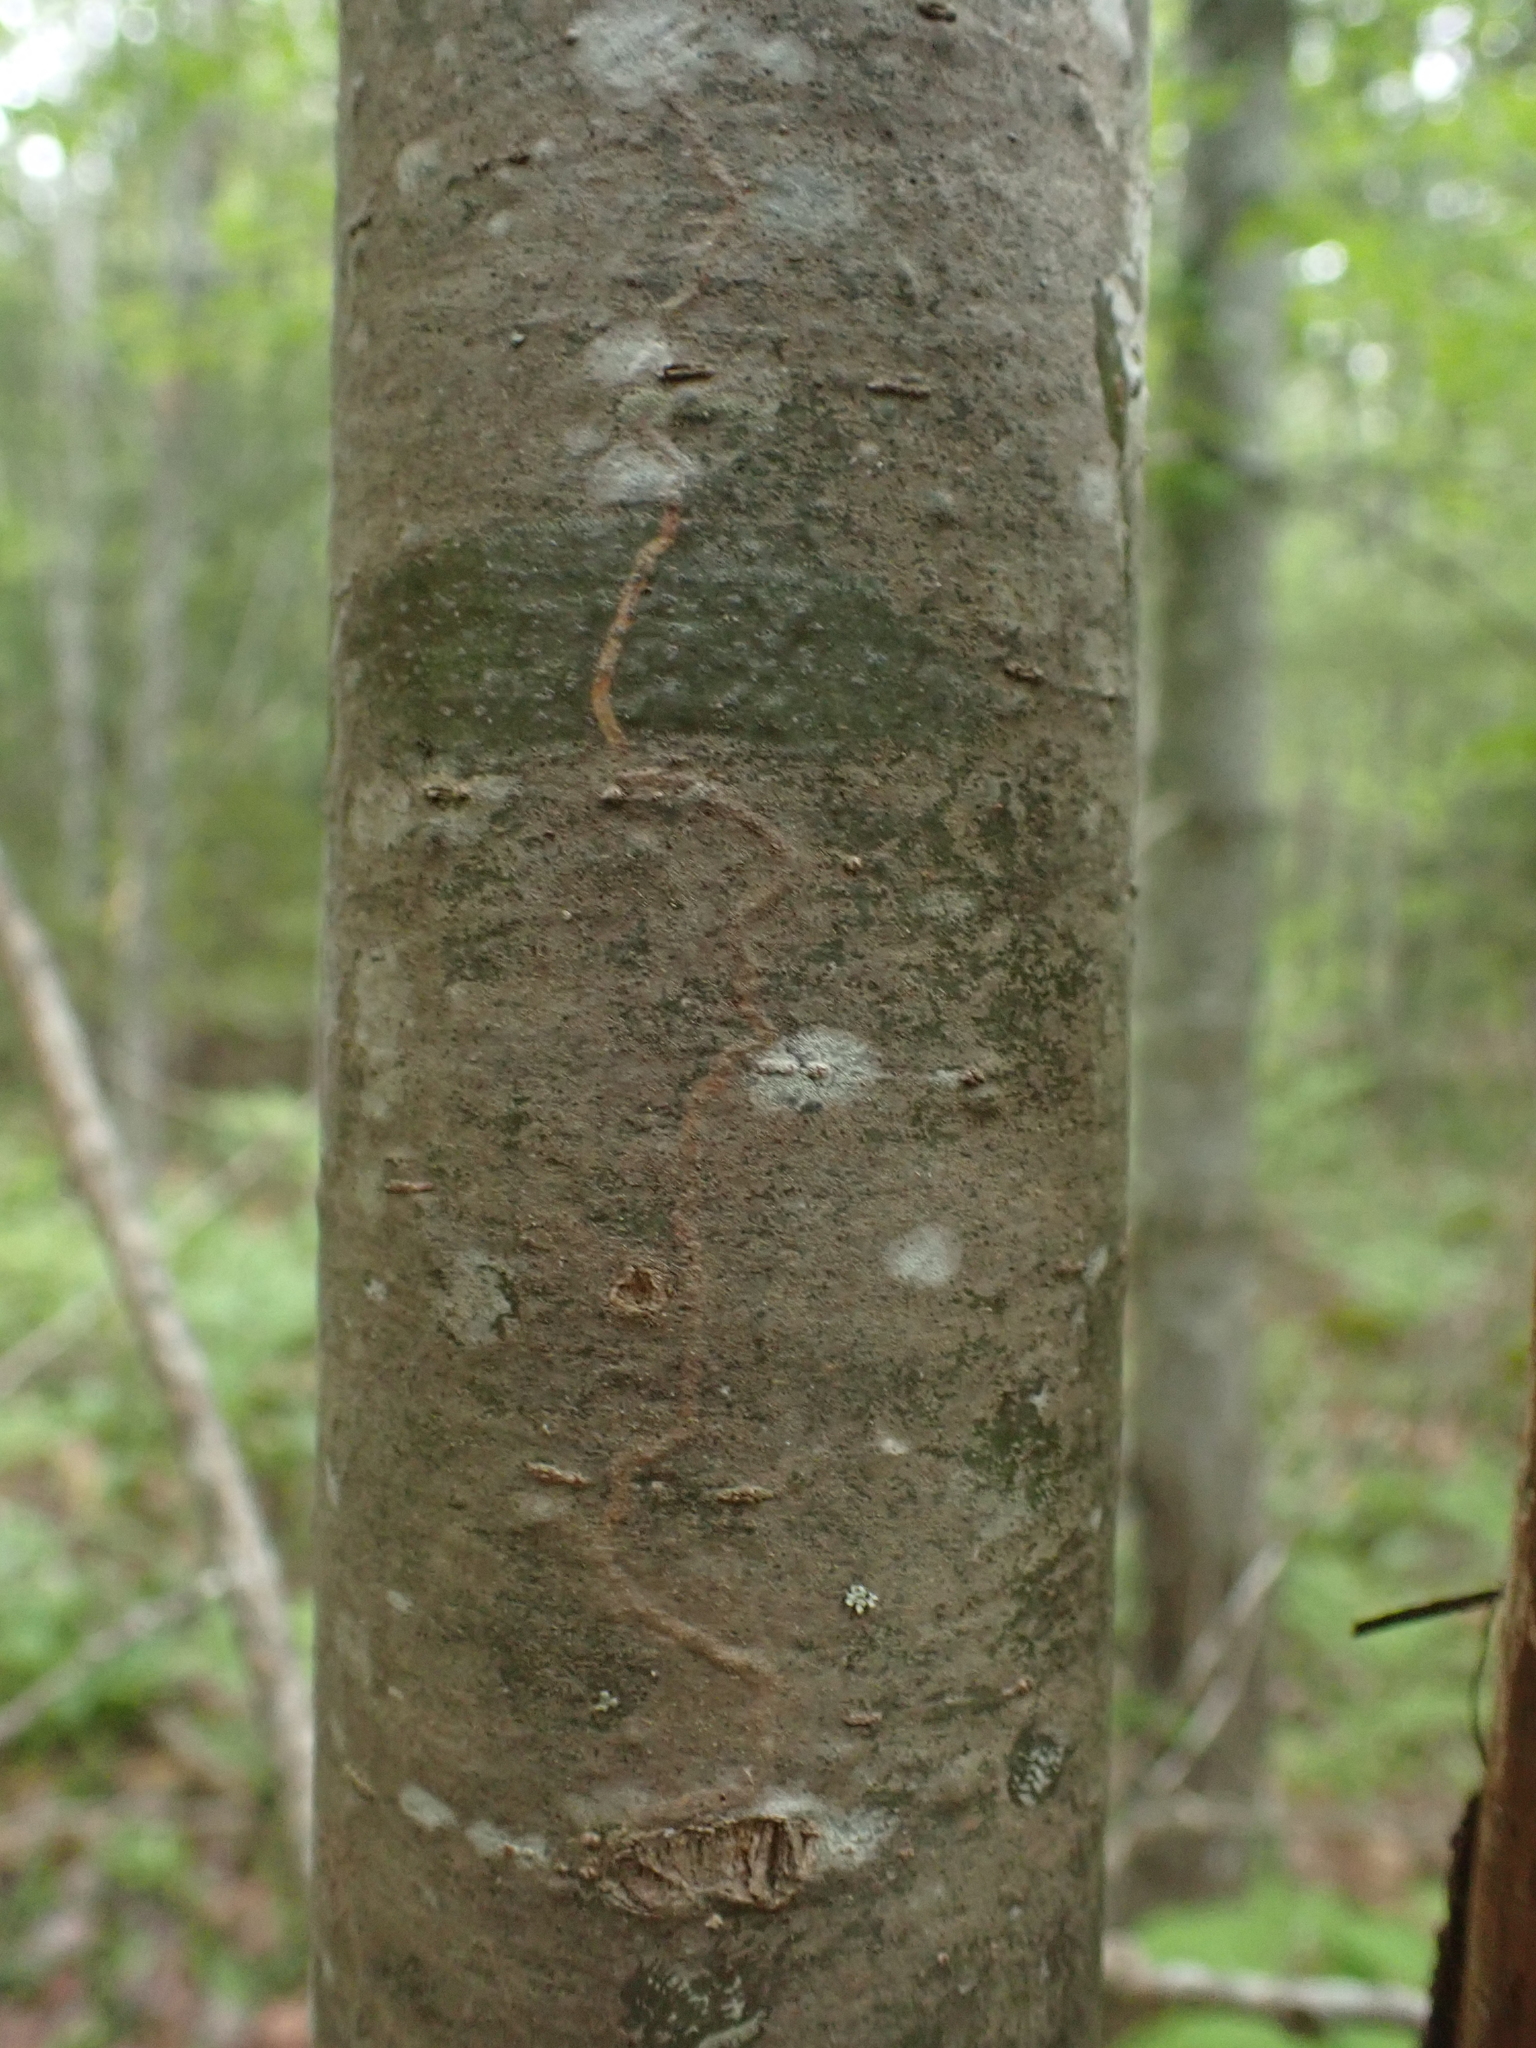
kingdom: Animalia
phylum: Arthropoda
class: Insecta
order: Lepidoptera
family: Gracillariidae
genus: Marmara
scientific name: Marmara fasciella
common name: White pine barkminer moth
